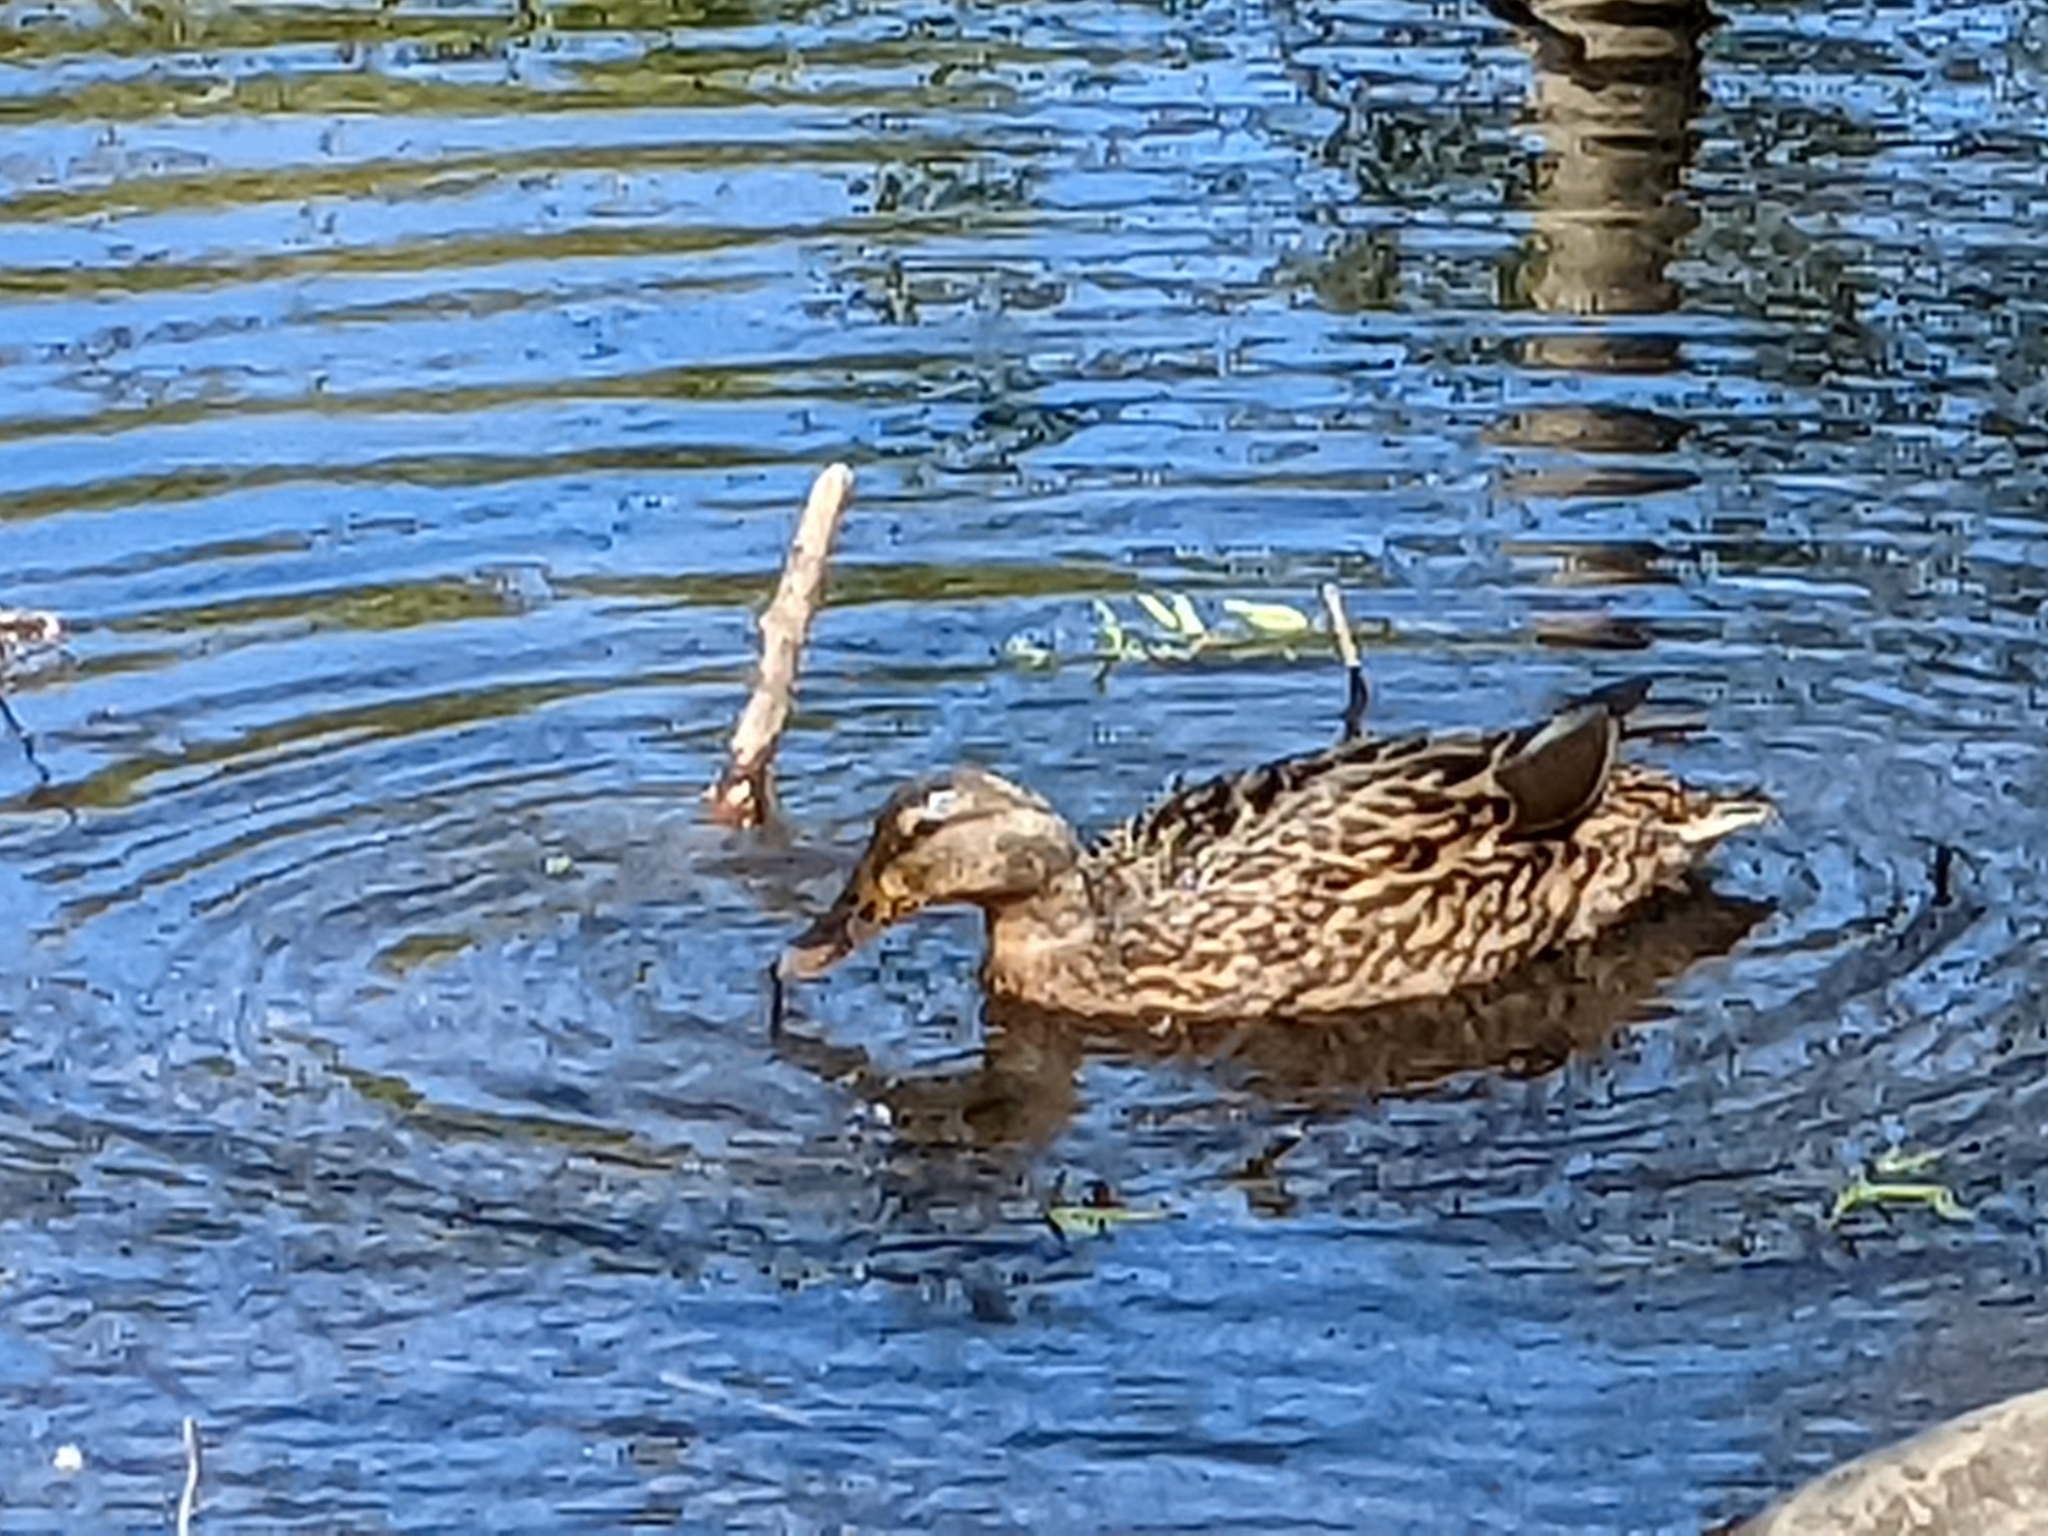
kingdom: Animalia
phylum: Chordata
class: Aves
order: Anseriformes
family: Anatidae
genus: Anas
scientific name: Anas platyrhynchos
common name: Mallard
